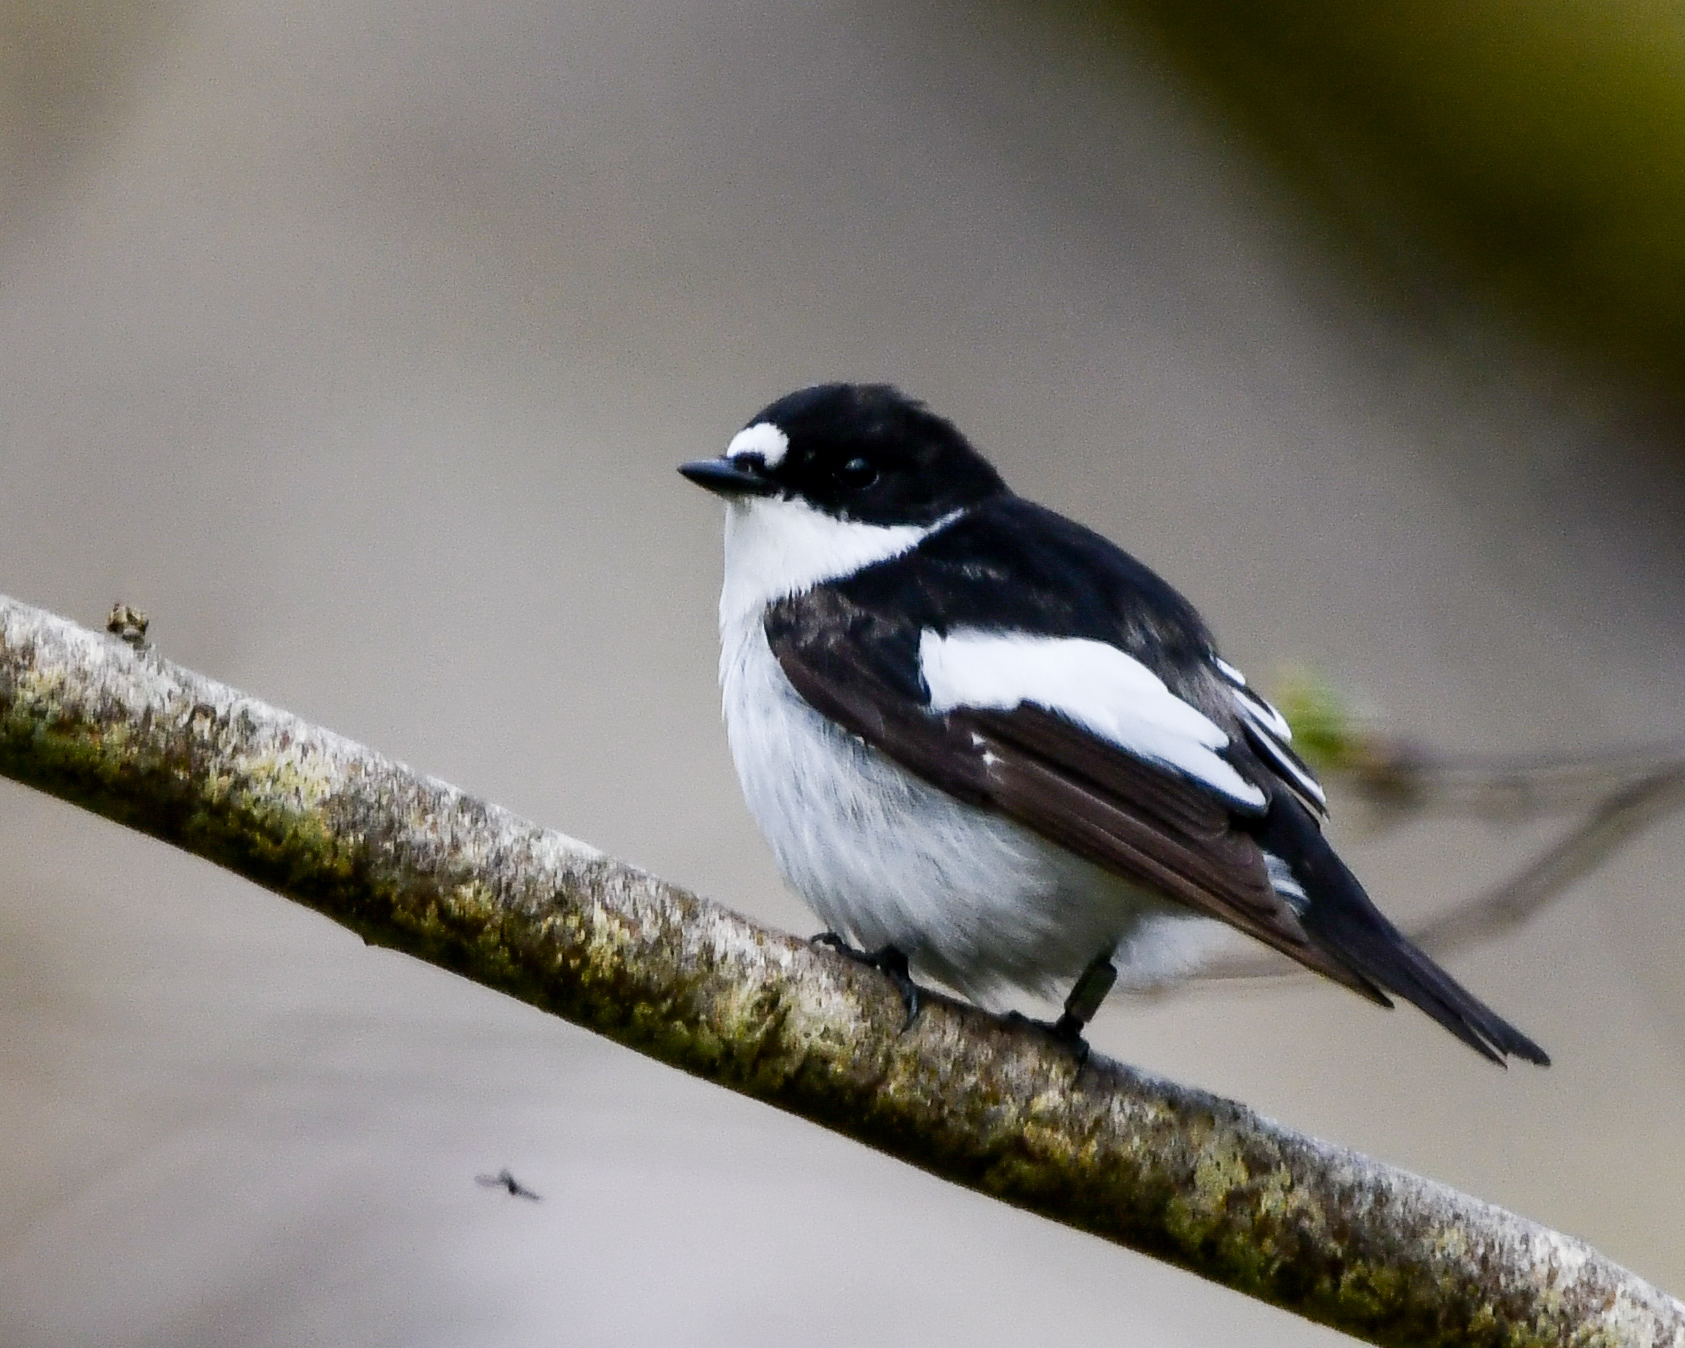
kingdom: Animalia
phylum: Chordata
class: Aves
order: Passeriformes
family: Muscicapidae
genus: Ficedula
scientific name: Ficedula hypoleuca
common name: European pied flycatcher
